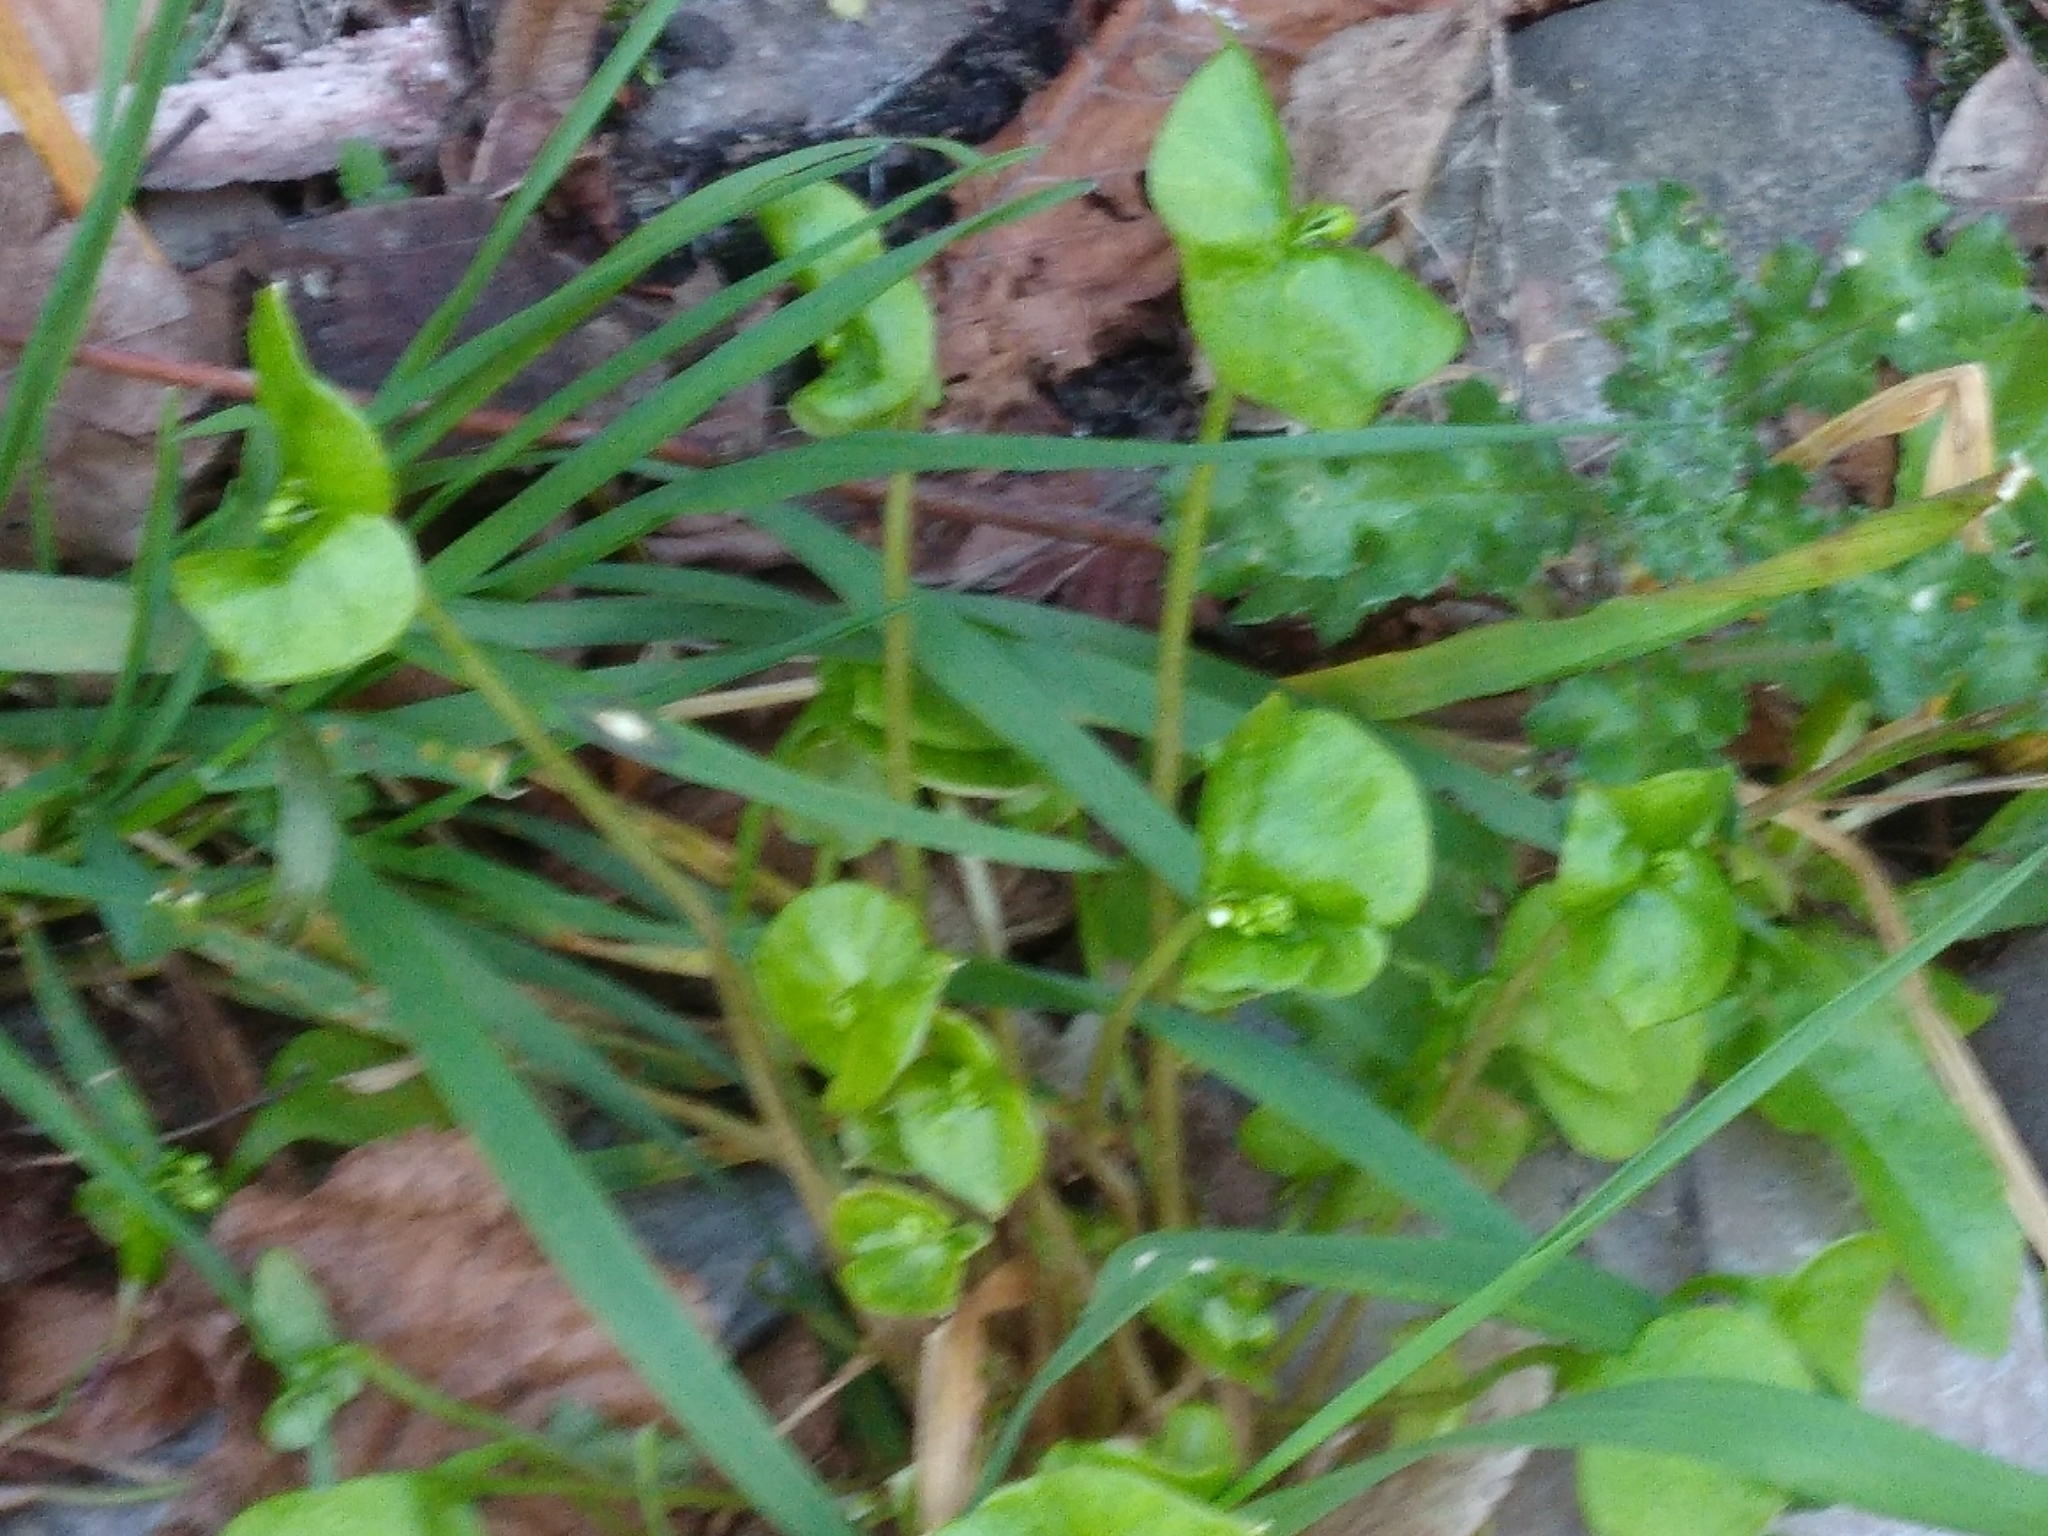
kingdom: Plantae
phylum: Tracheophyta
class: Magnoliopsida
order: Caryophyllales
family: Montiaceae
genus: Claytonia
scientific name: Claytonia perfoliata
